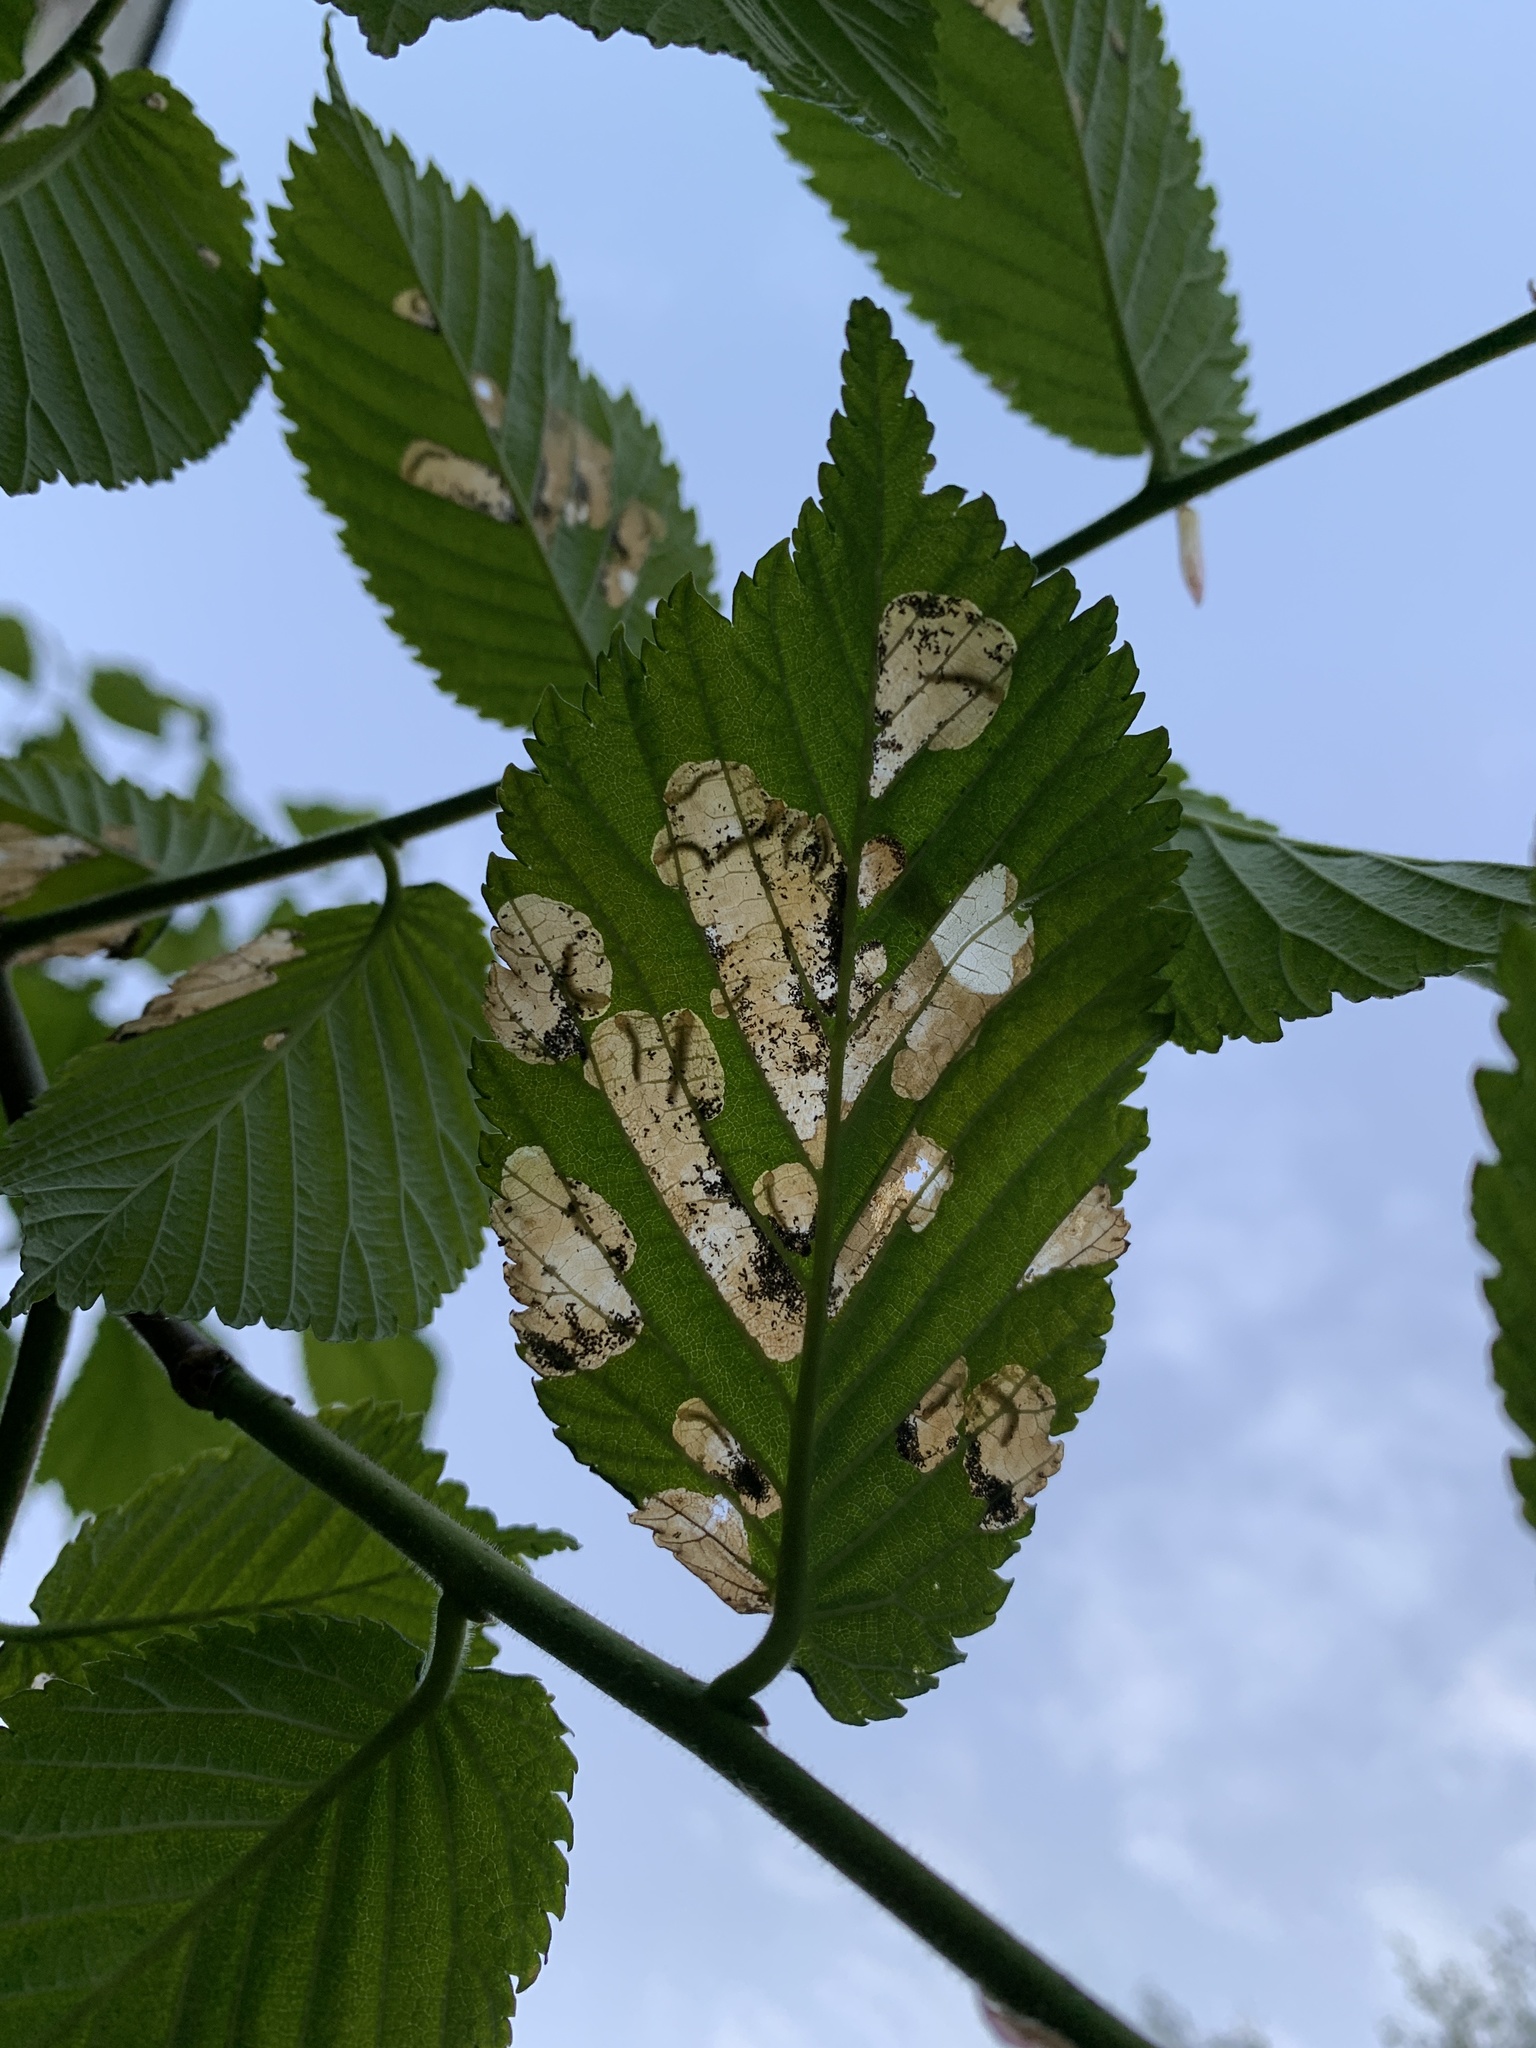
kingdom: Animalia
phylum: Arthropoda
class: Insecta
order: Hymenoptera
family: Tenthredinidae
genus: Fenusa
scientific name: Fenusa ulmi
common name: Elm leafminer
